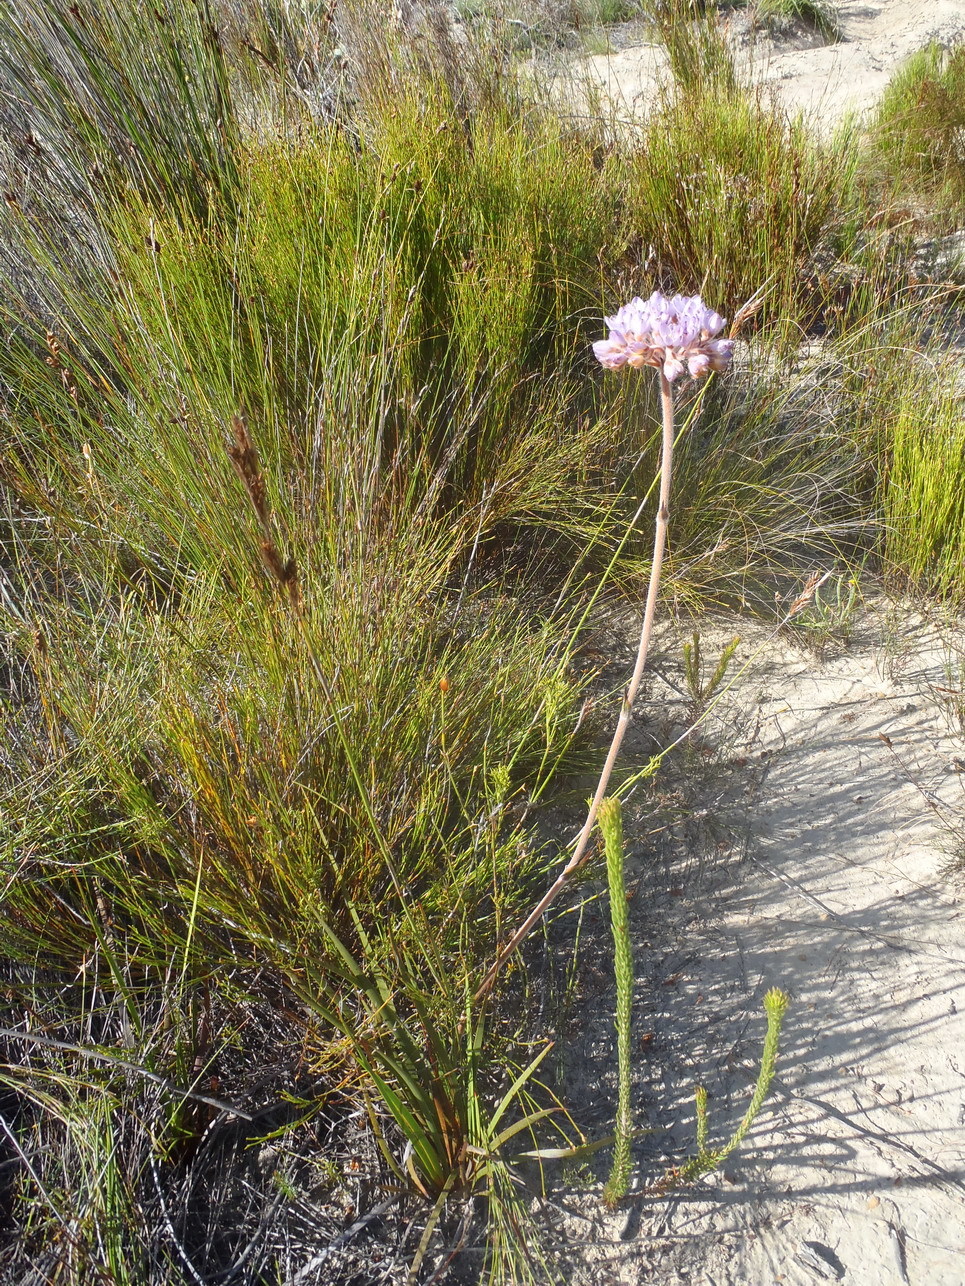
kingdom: Plantae
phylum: Tracheophyta
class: Liliopsida
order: Commelinales
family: Haemodoraceae
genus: Dilatris
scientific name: Dilatris pillansii
